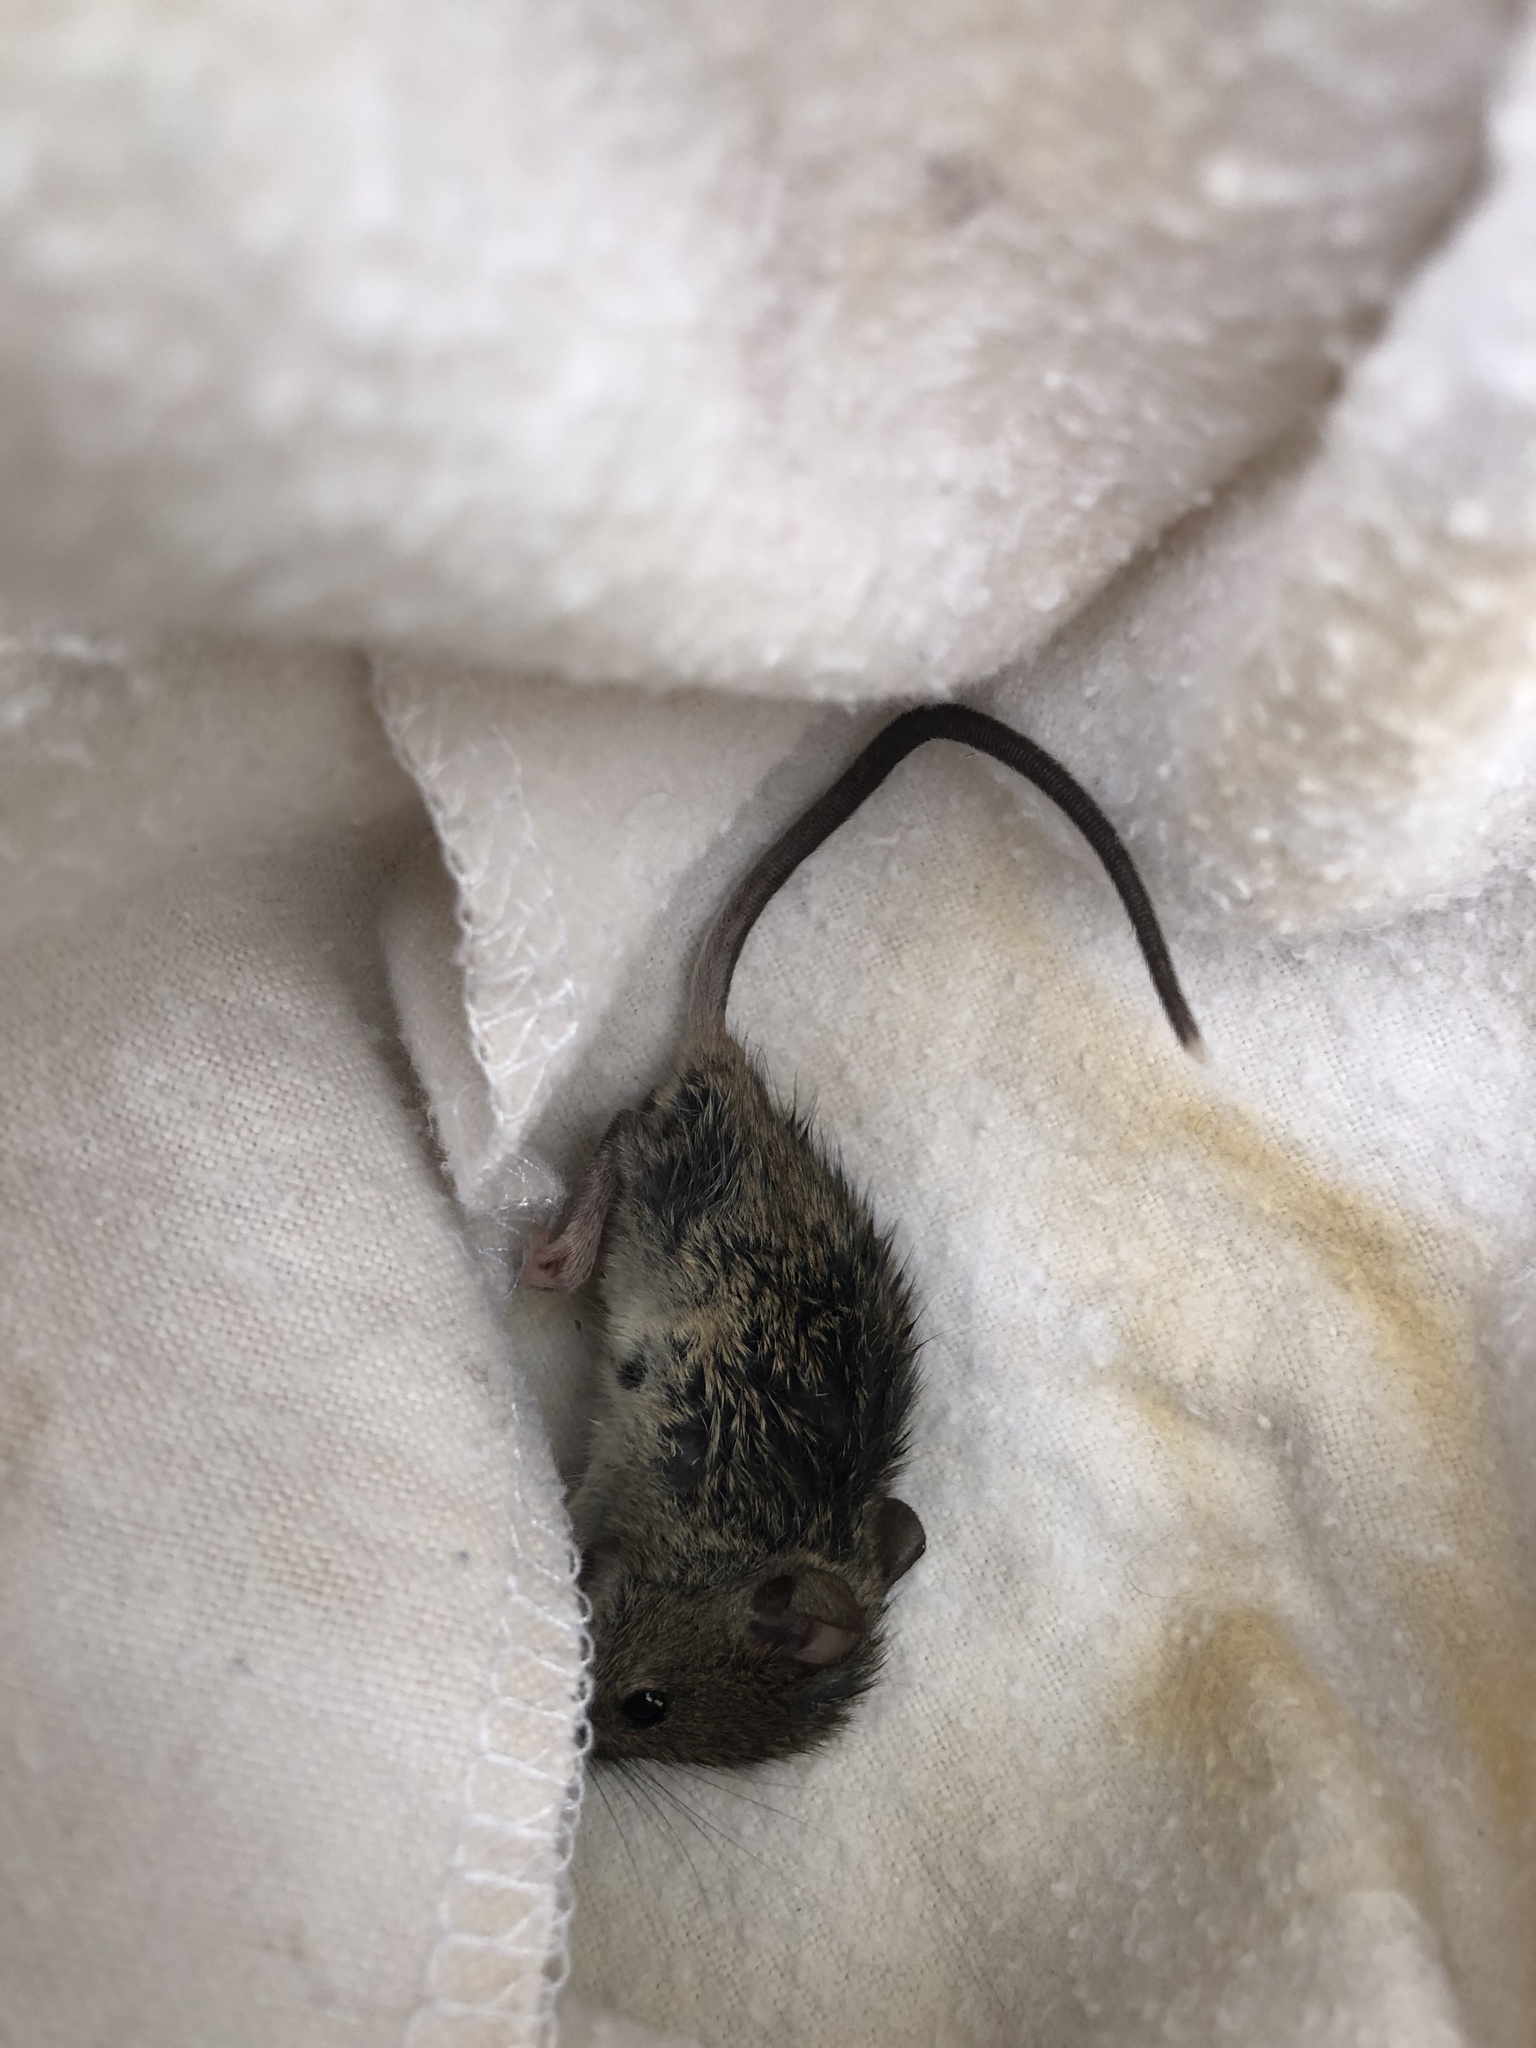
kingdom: Animalia
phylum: Chordata
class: Mammalia
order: Rodentia
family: Muridae
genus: Mus
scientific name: Mus musculus
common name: House mouse
